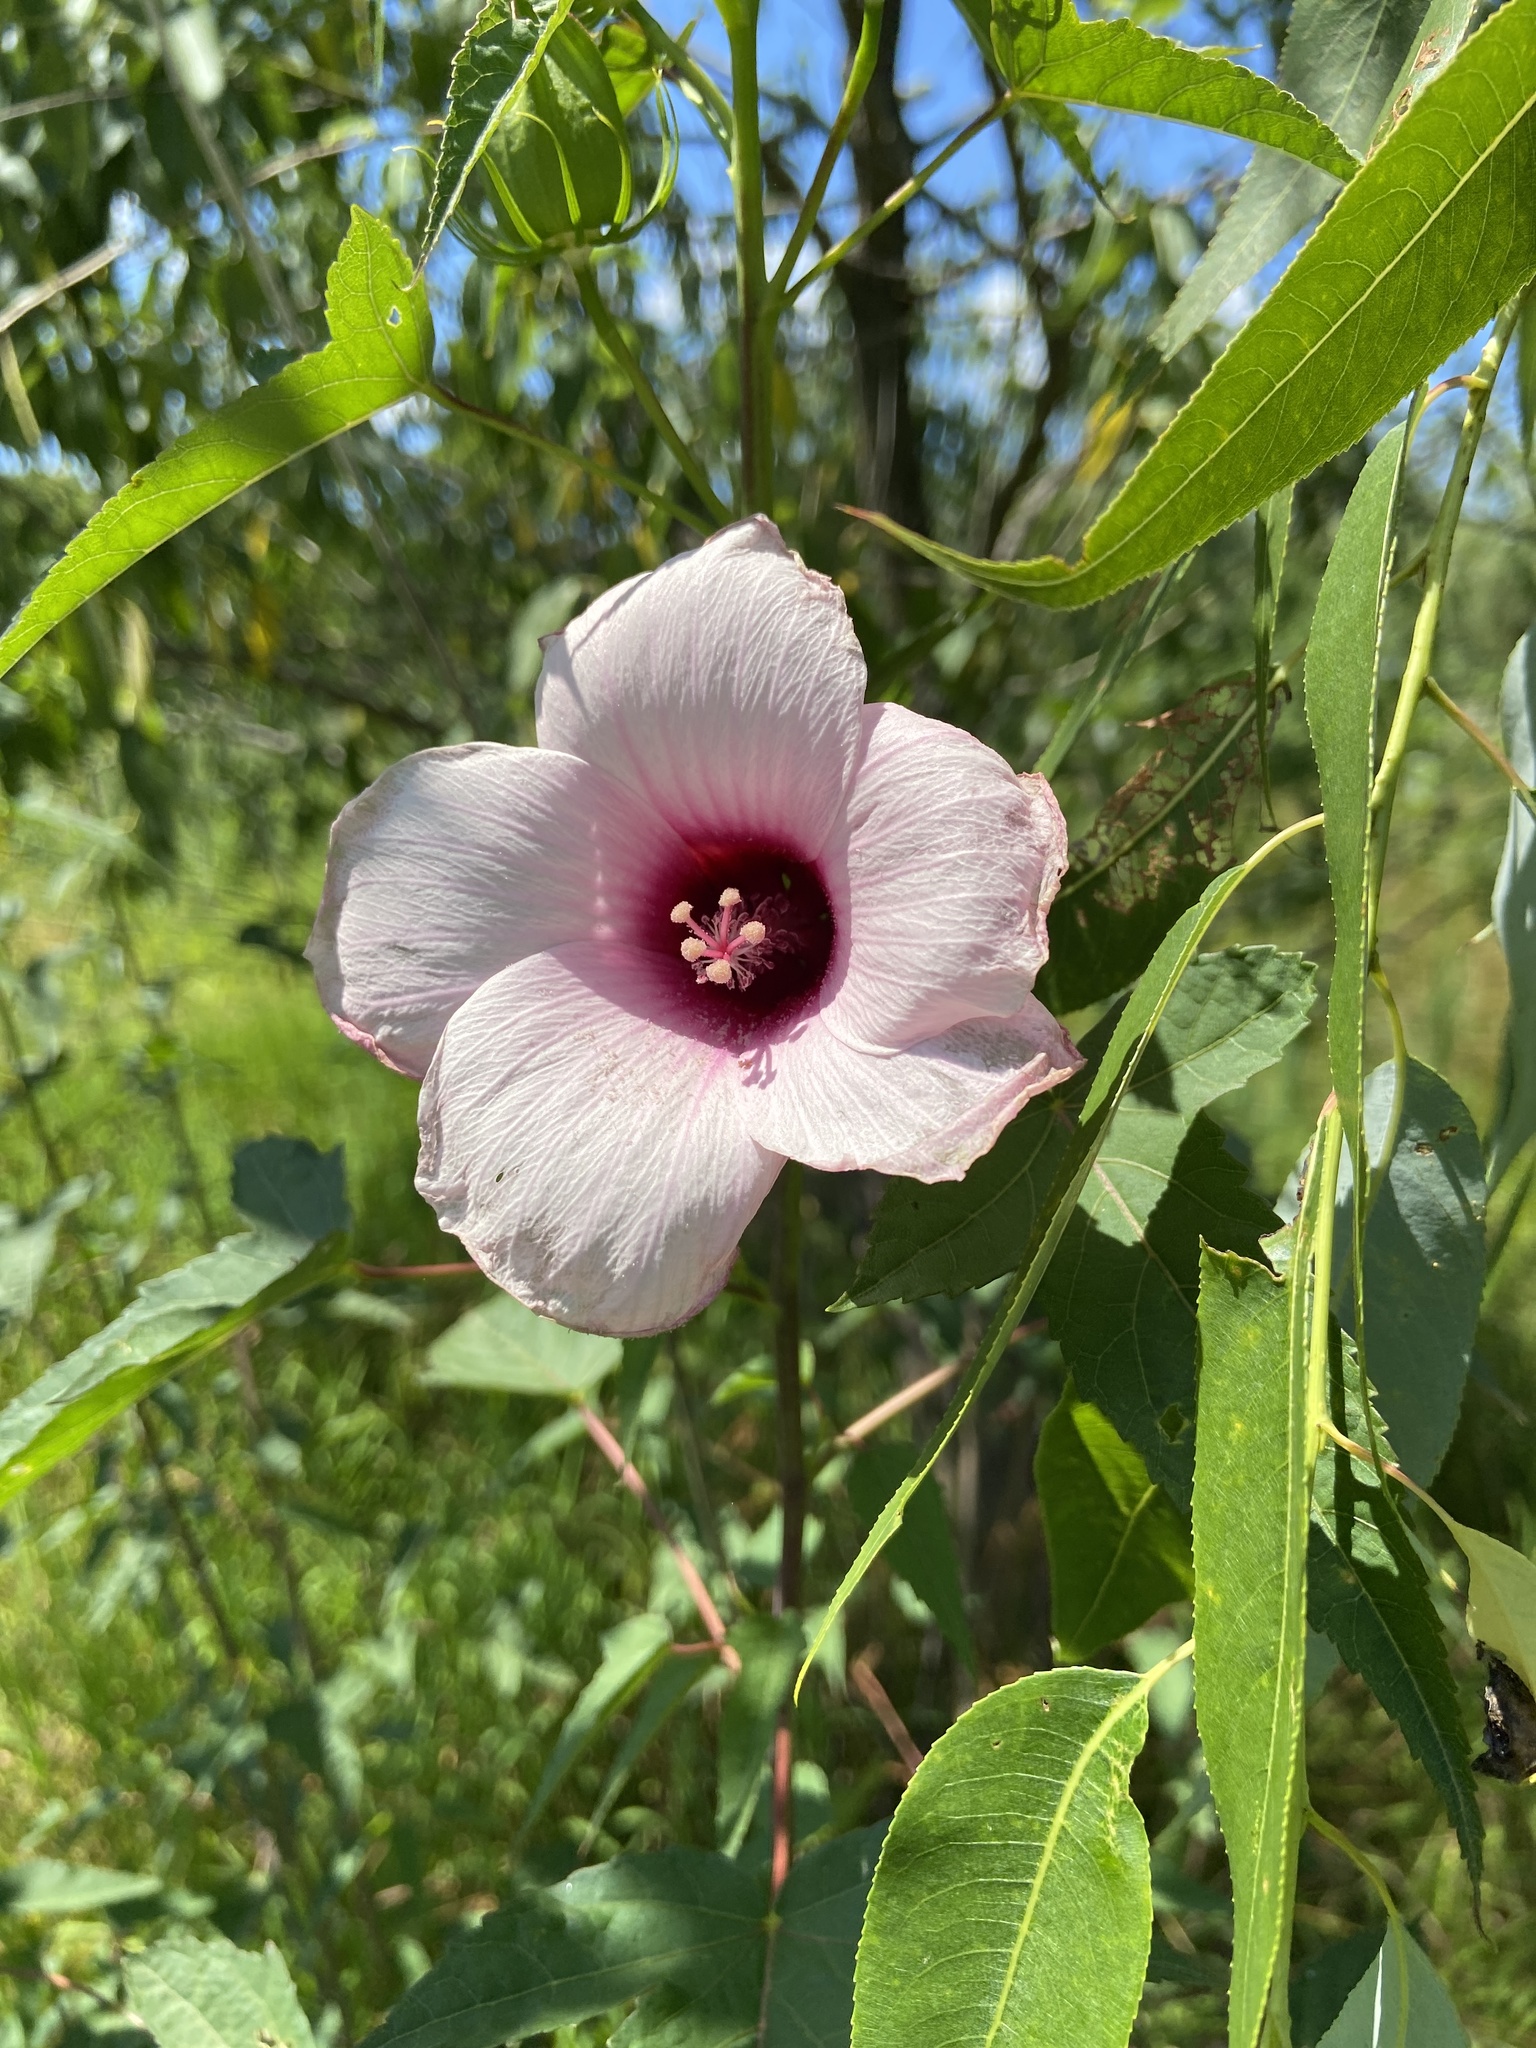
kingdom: Plantae
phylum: Tracheophyta
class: Magnoliopsida
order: Malvales
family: Malvaceae
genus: Hibiscus
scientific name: Hibiscus laevis
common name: Scarlet rose-mallow
